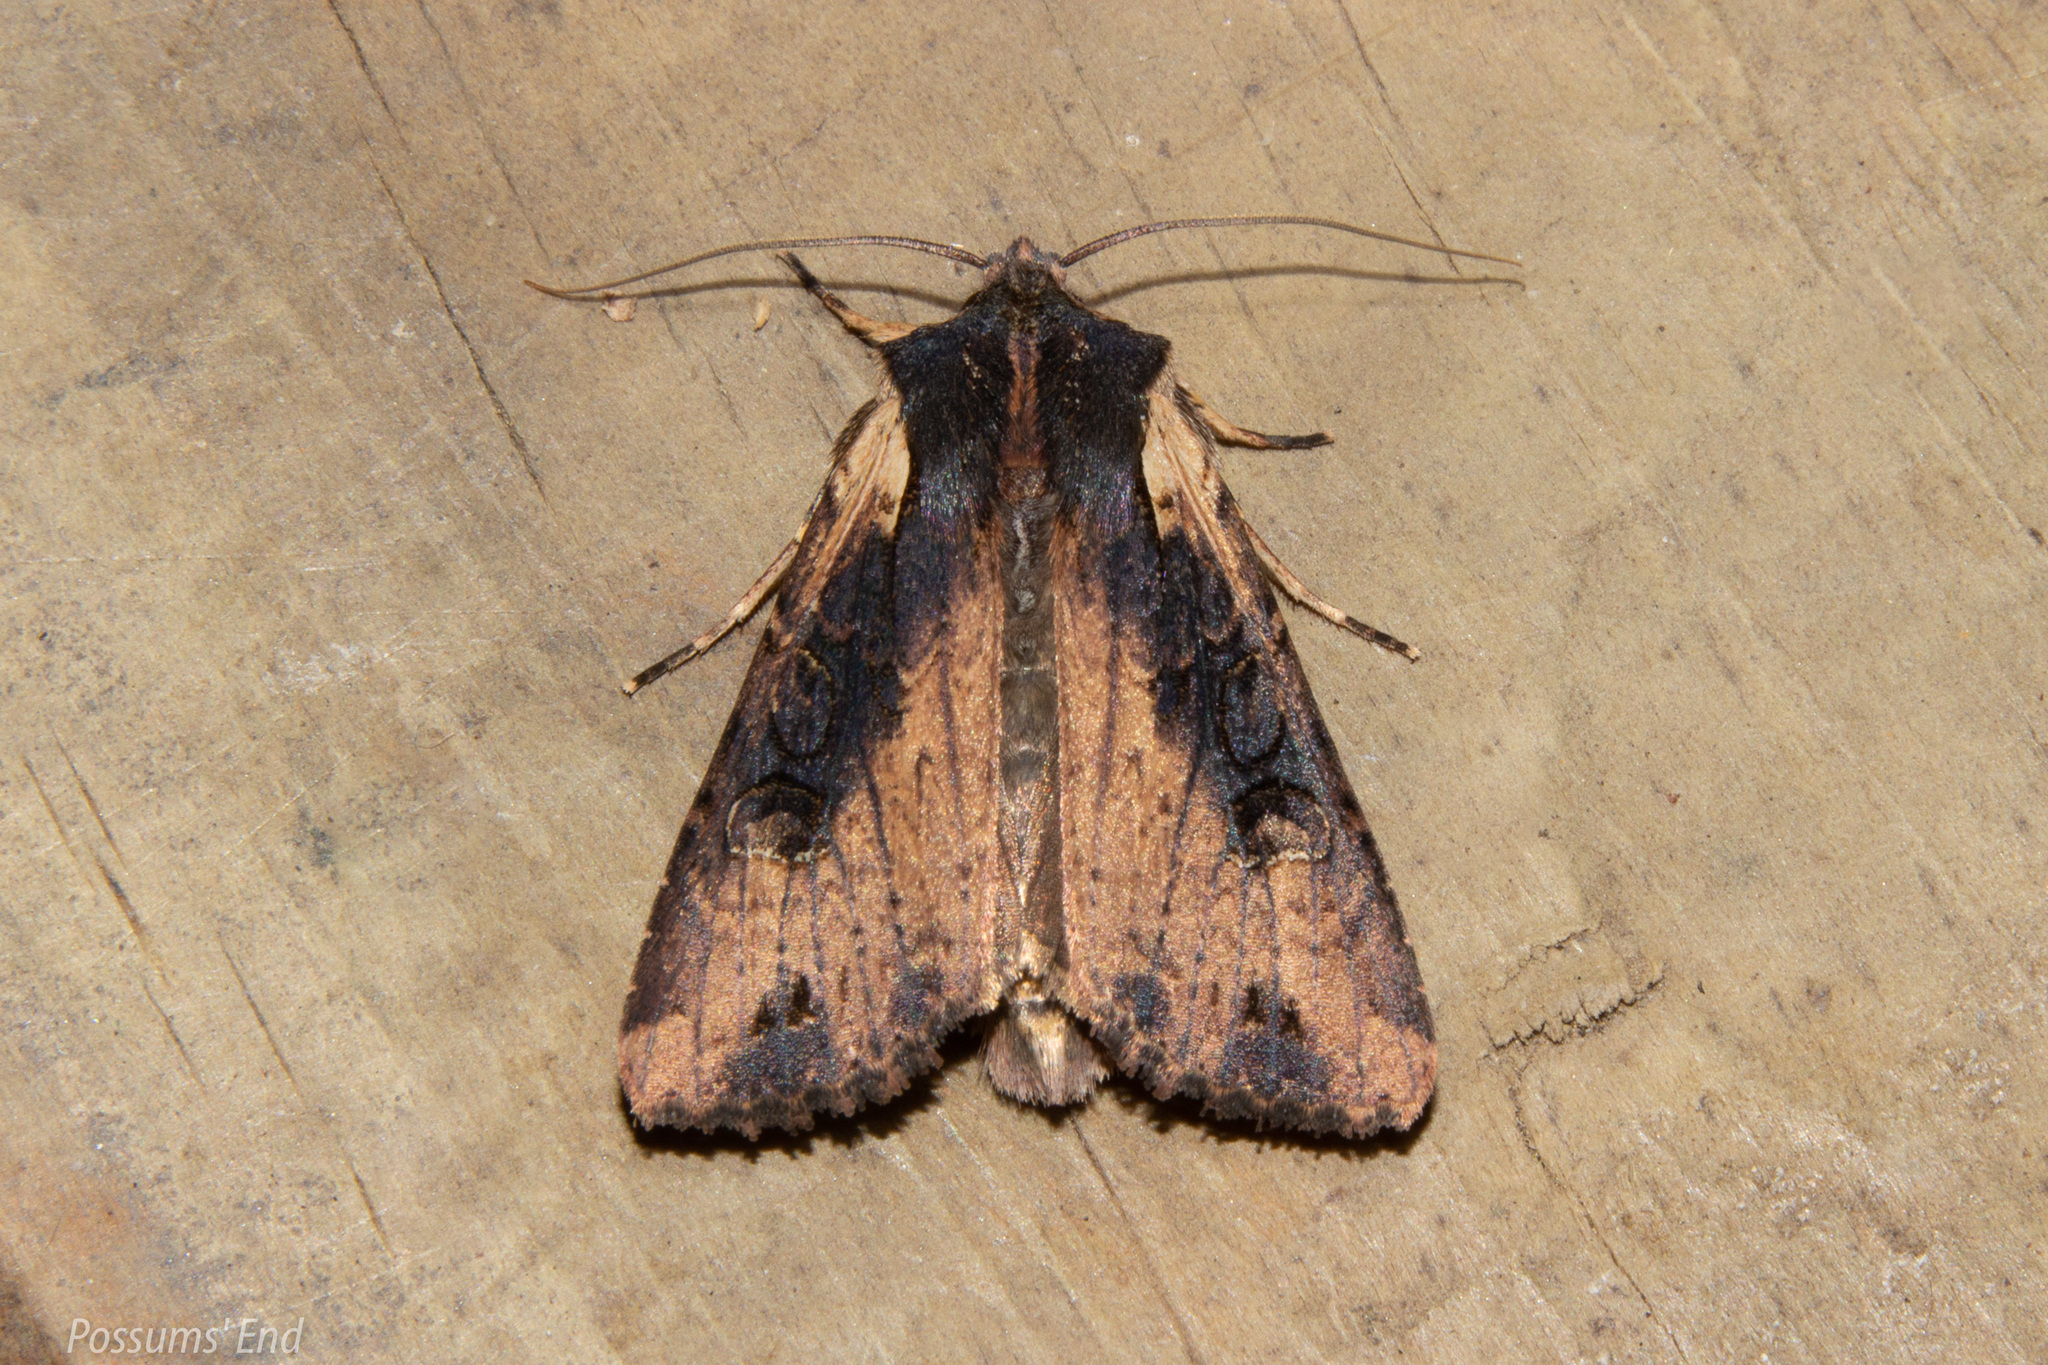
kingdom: Animalia
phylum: Arthropoda
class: Insecta
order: Lepidoptera
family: Noctuidae
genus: Ichneutica
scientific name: Ichneutica omoplaca
